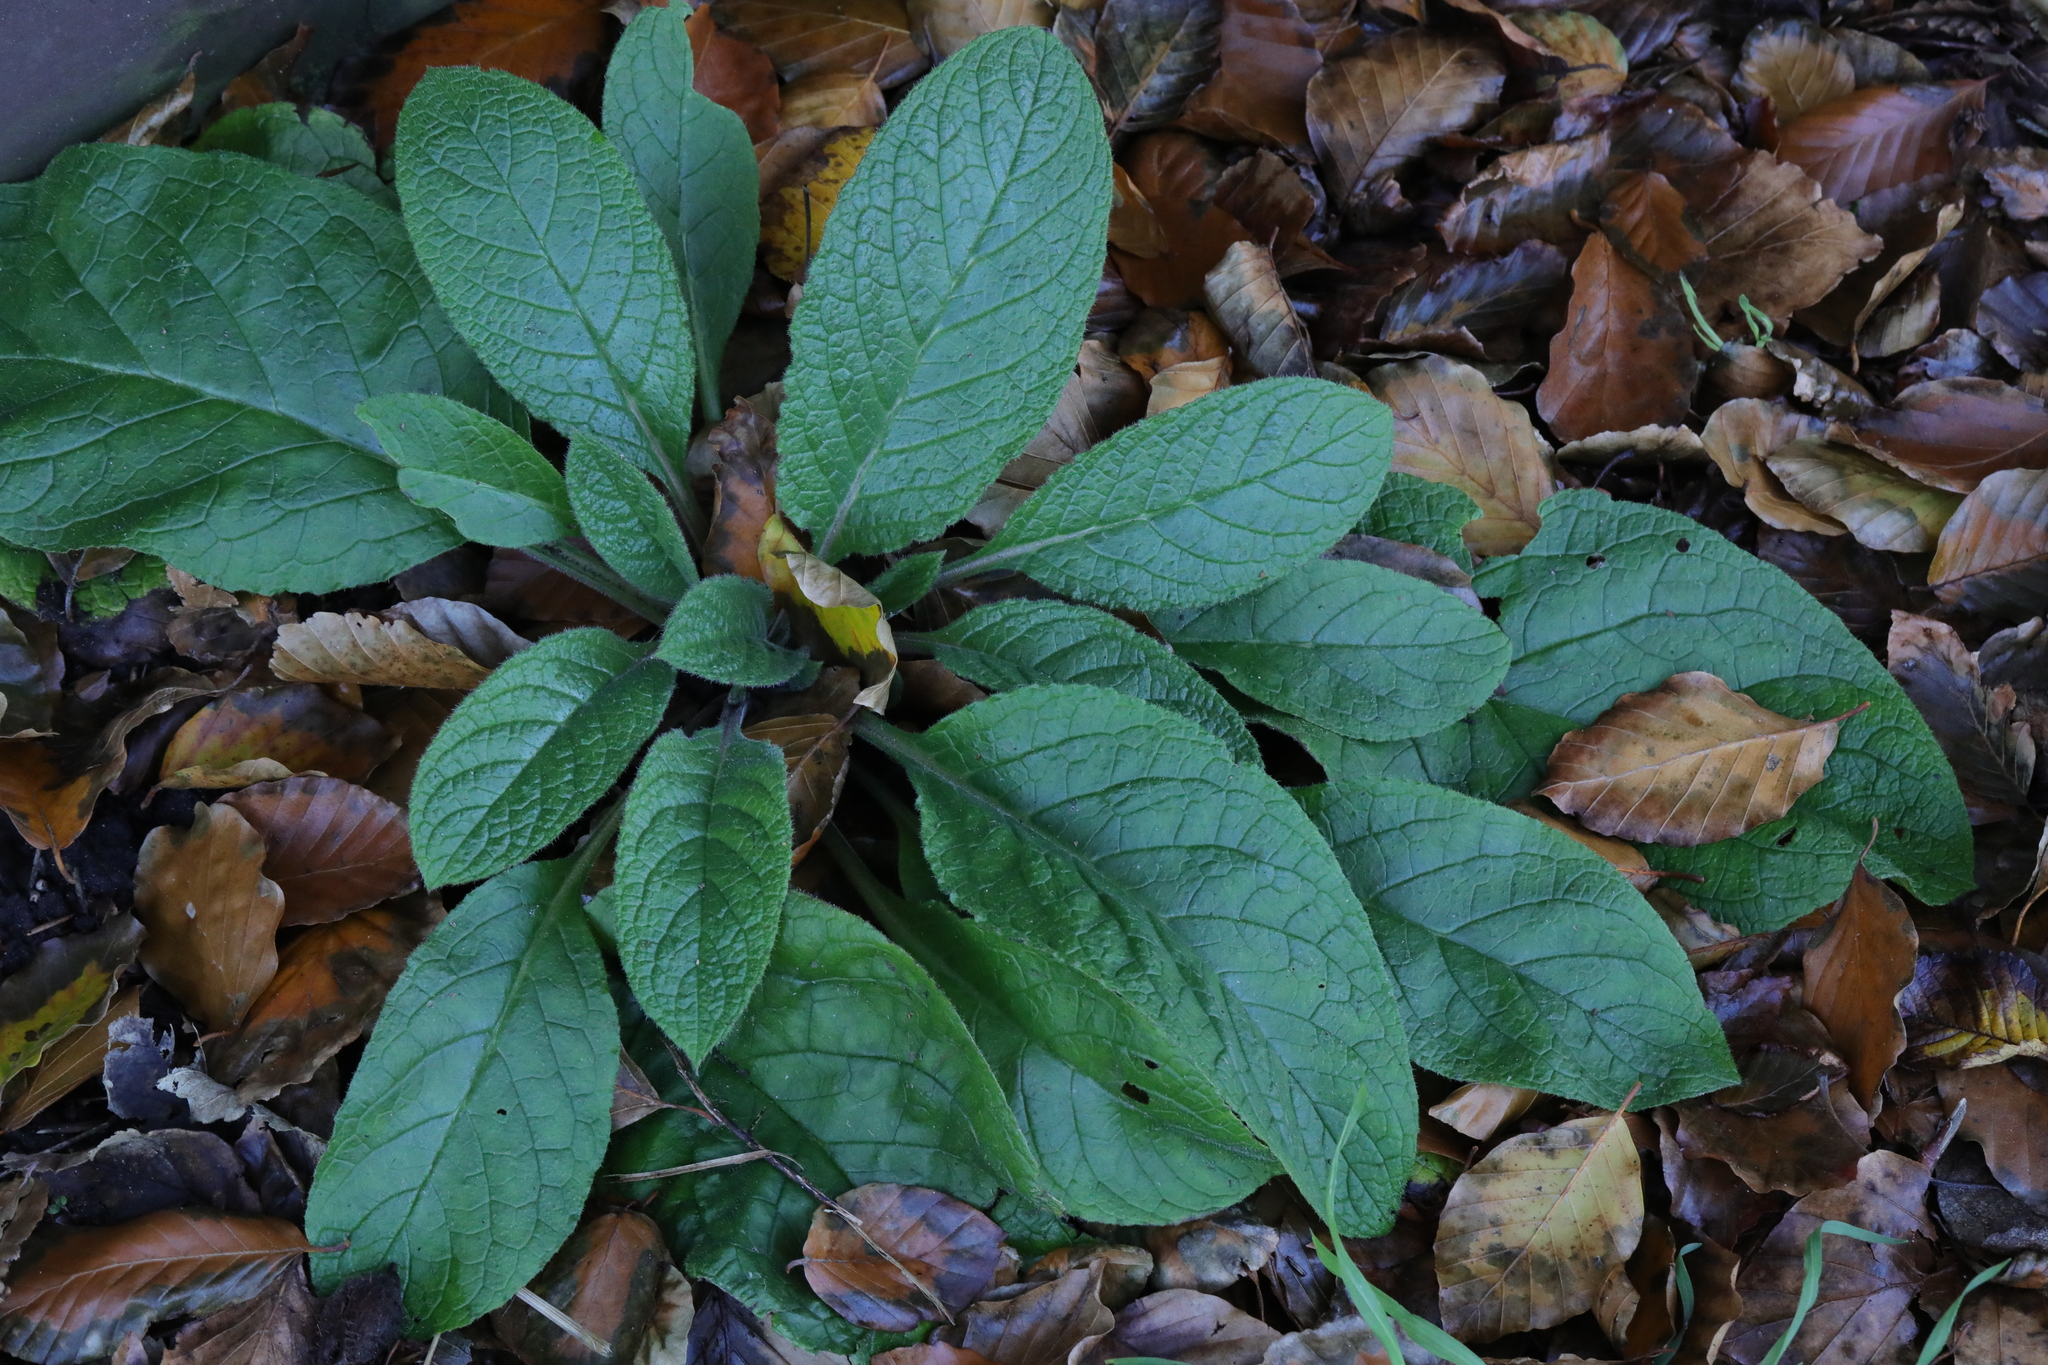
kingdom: Plantae
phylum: Tracheophyta
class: Magnoliopsida
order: Boraginales
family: Boraginaceae
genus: Pentaglottis
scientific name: Pentaglottis sempervirens
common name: Green alkanet
